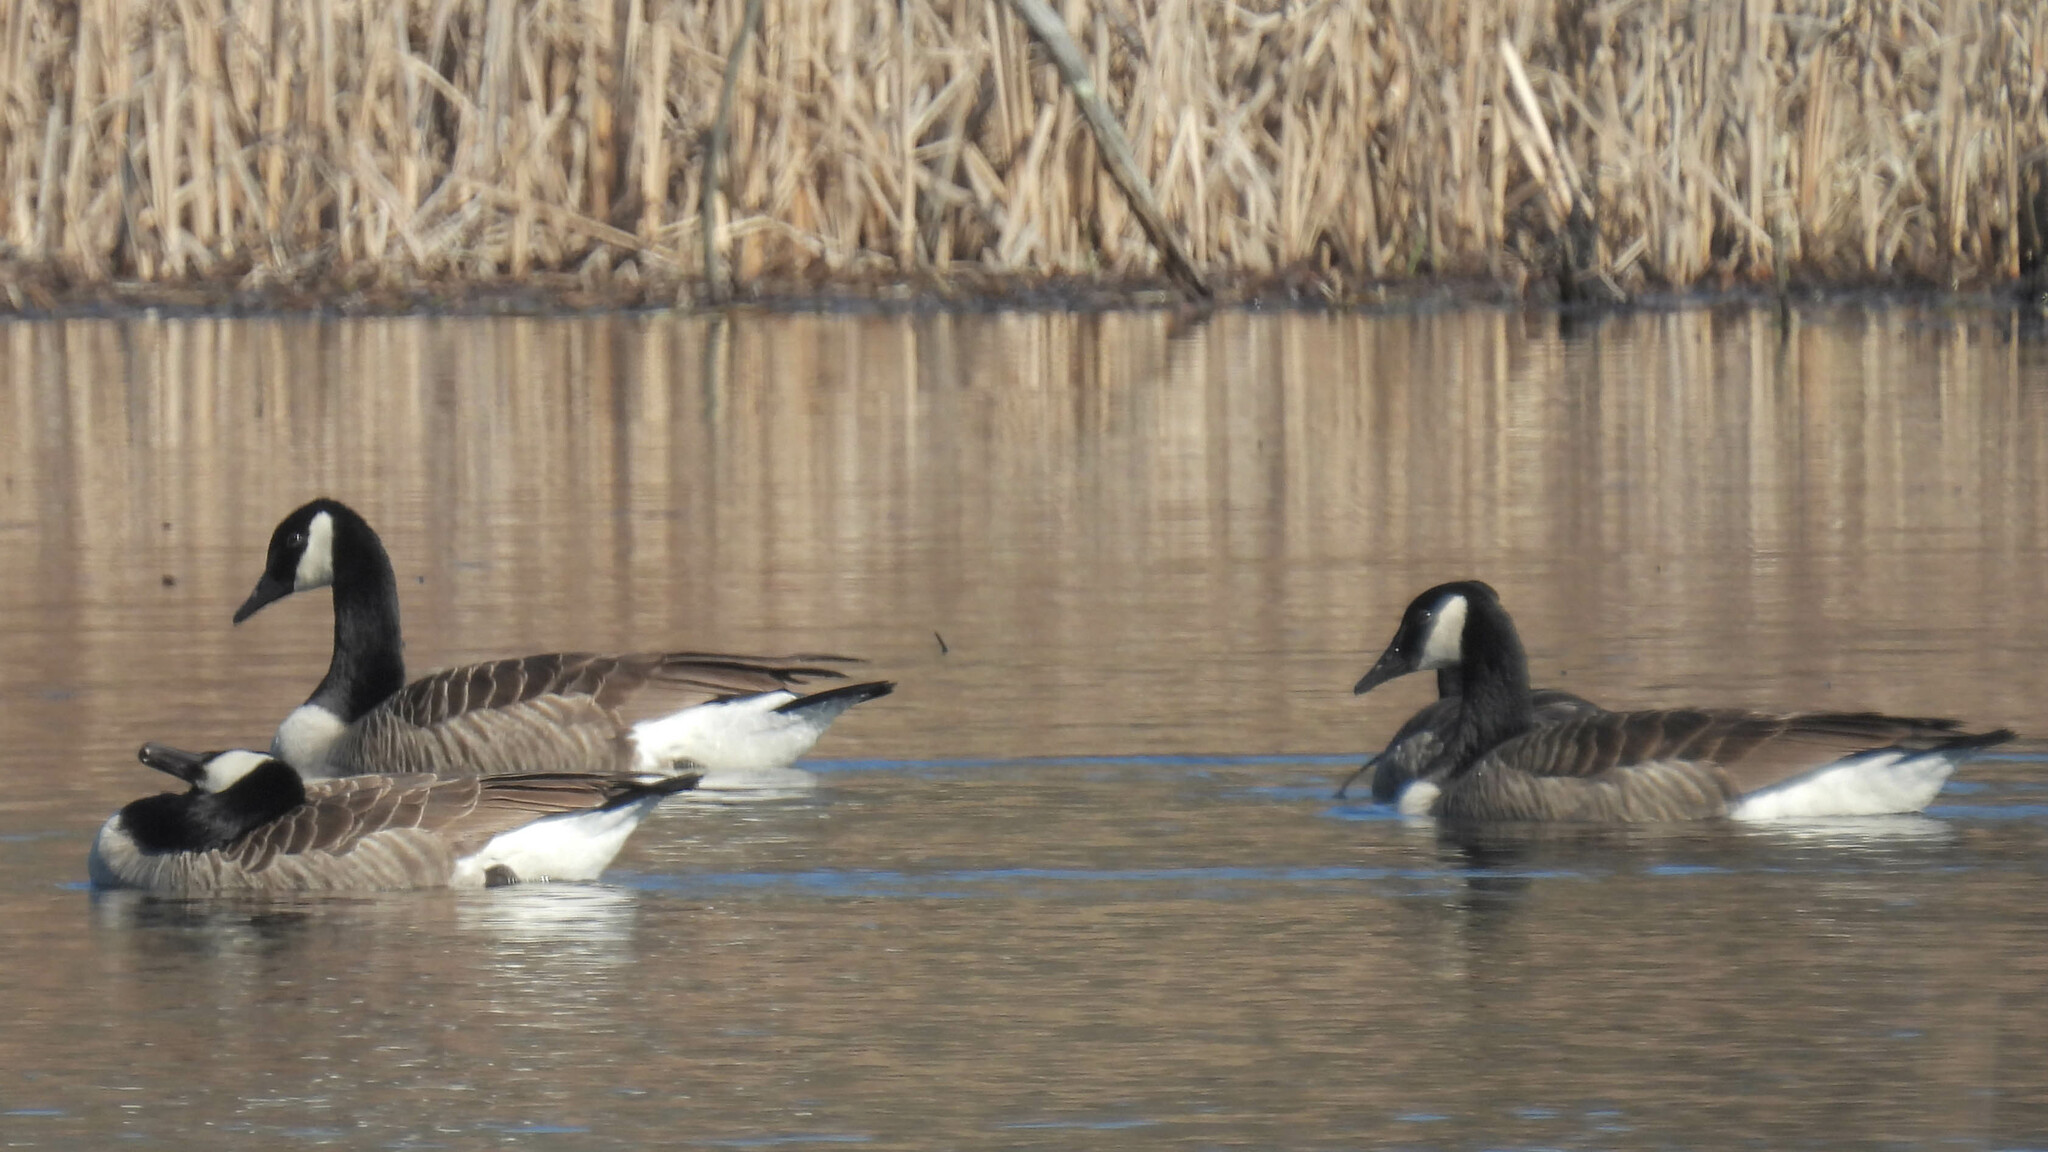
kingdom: Animalia
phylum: Chordata
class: Aves
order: Anseriformes
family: Anatidae
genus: Branta
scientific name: Branta canadensis
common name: Canada goose
